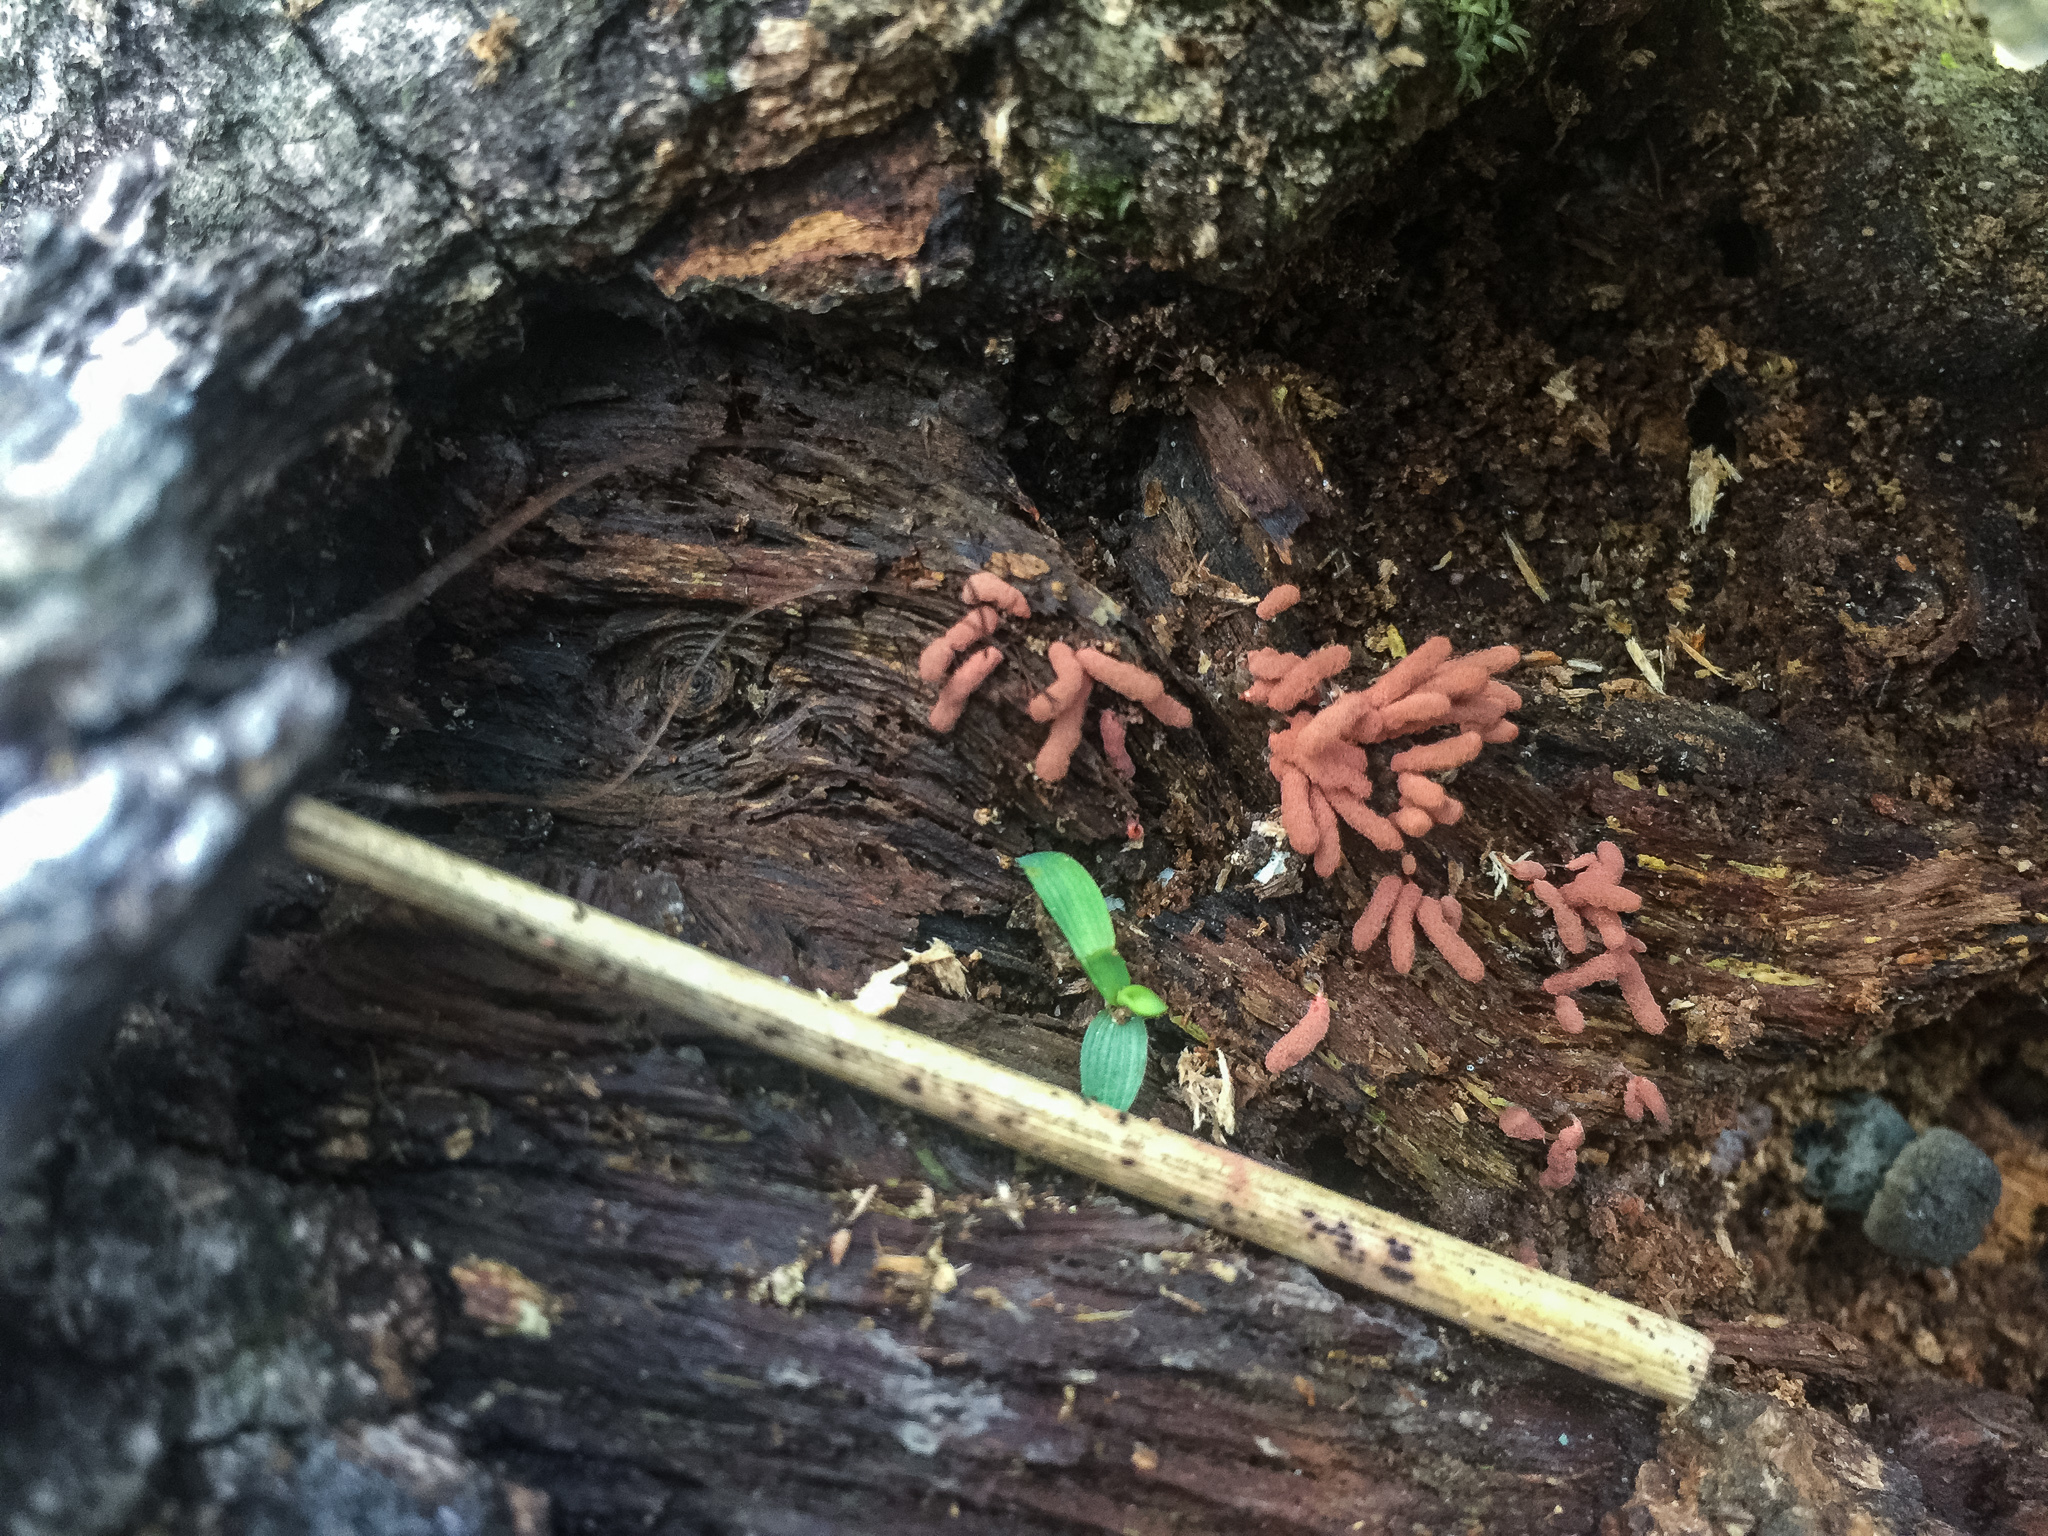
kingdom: Protozoa
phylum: Mycetozoa
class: Myxomycetes
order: Trichiales
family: Arcyriaceae
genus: Arcyria
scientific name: Arcyria denudata
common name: Carnival candy slime mold
